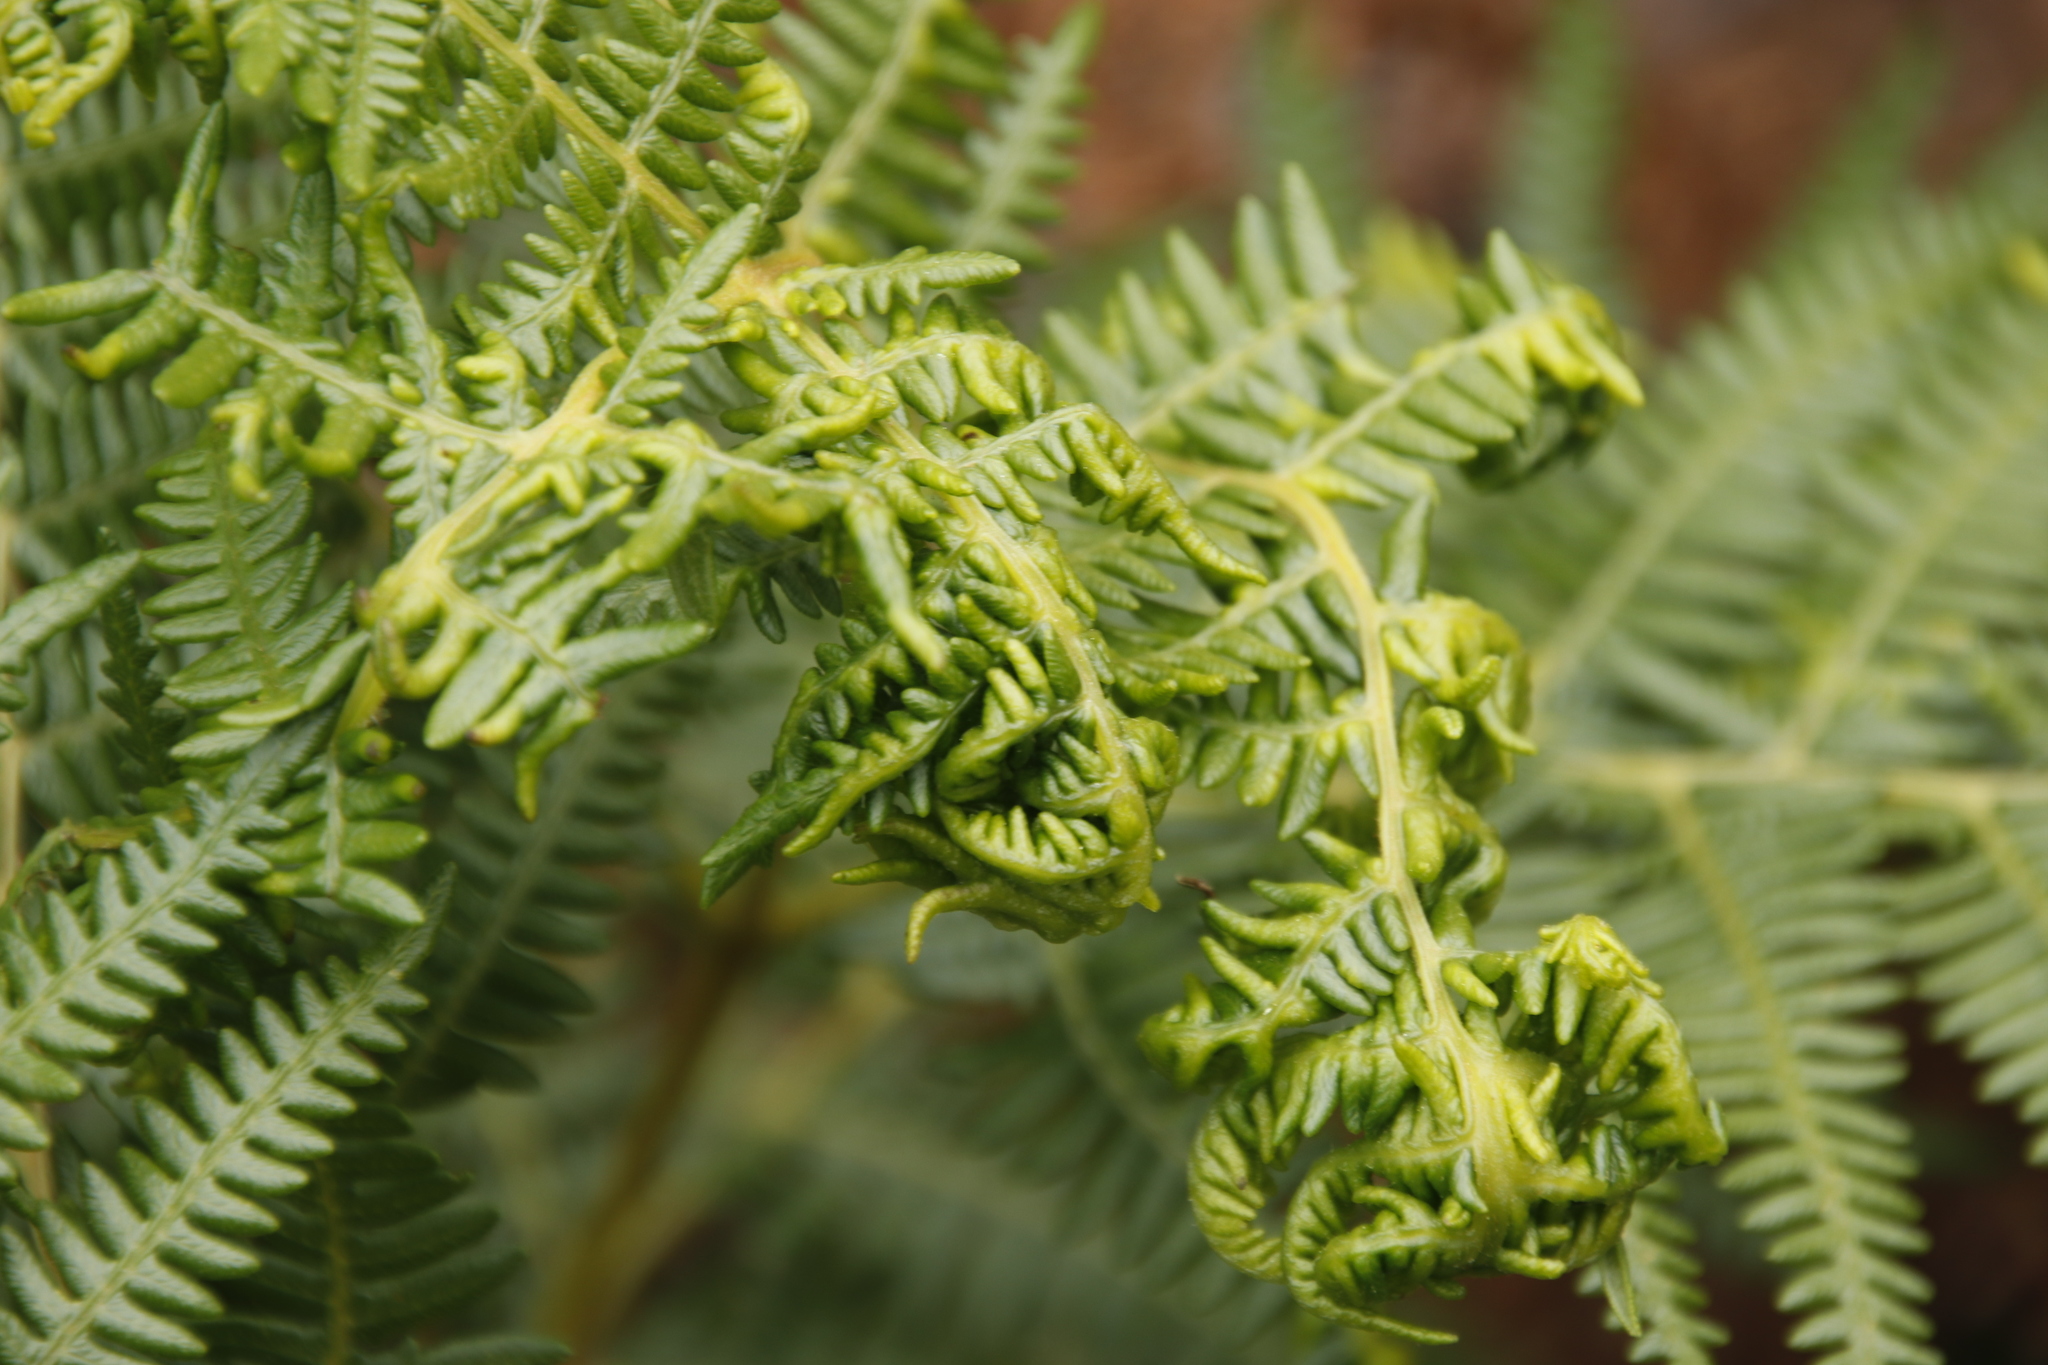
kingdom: Plantae
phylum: Tracheophyta
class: Polypodiopsida
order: Polypodiales
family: Dennstaedtiaceae
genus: Pteridium
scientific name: Pteridium aquilinum
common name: Bracken
